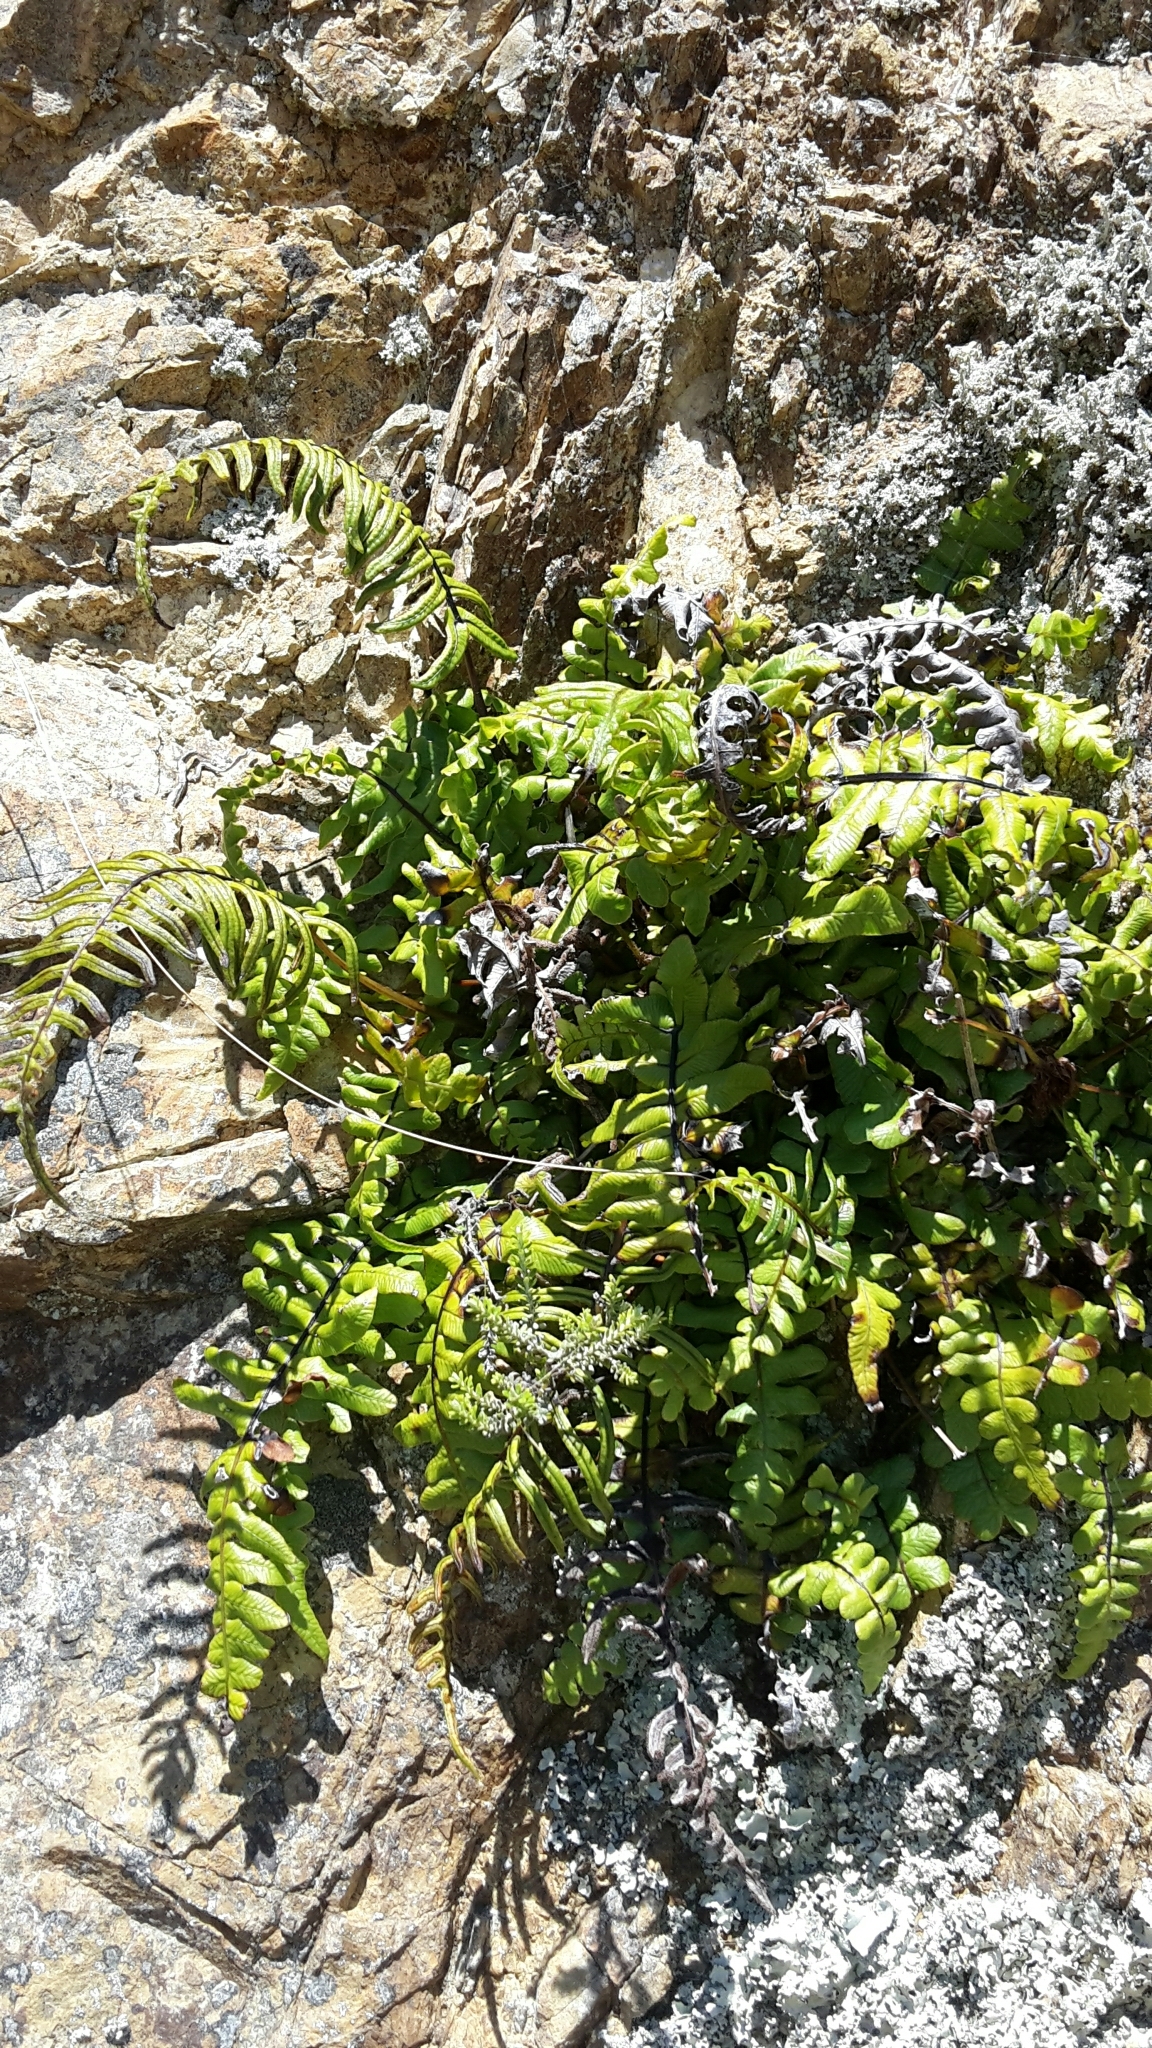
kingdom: Plantae
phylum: Tracheophyta
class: Polypodiopsida
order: Polypodiales
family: Blechnaceae
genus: Cranfillia
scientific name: Cranfillia deltoides
